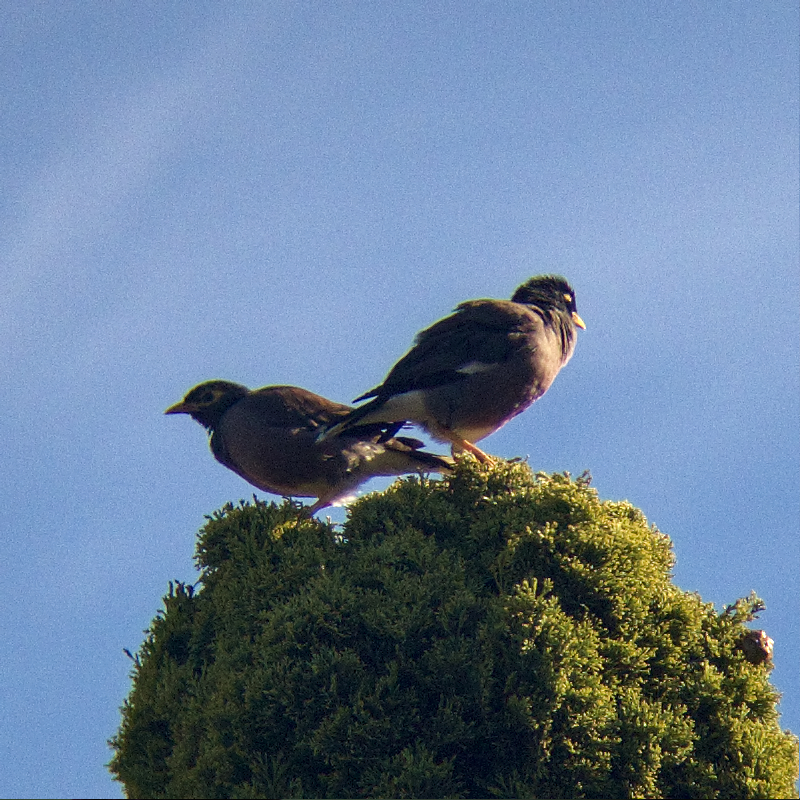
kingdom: Animalia
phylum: Chordata
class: Aves
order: Passeriformes
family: Sturnidae
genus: Acridotheres
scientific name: Acridotheres tristis
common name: Common myna
